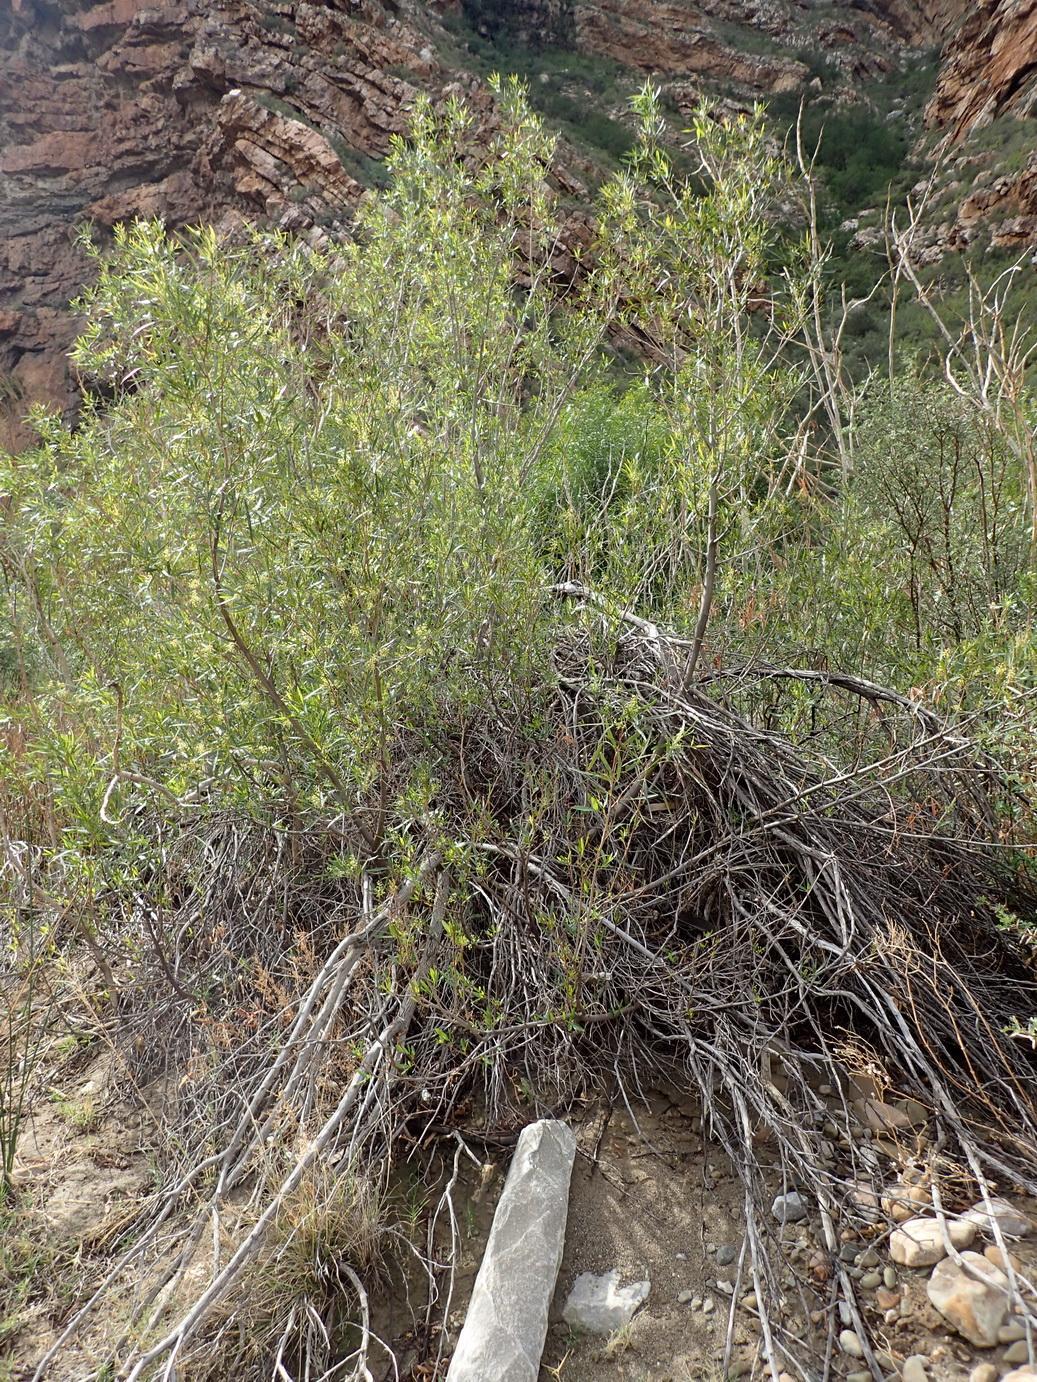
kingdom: Plantae
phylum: Tracheophyta
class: Magnoliopsida
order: Sapindales
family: Anacardiaceae
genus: Searsia
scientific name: Searsia lancea
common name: Cashew
